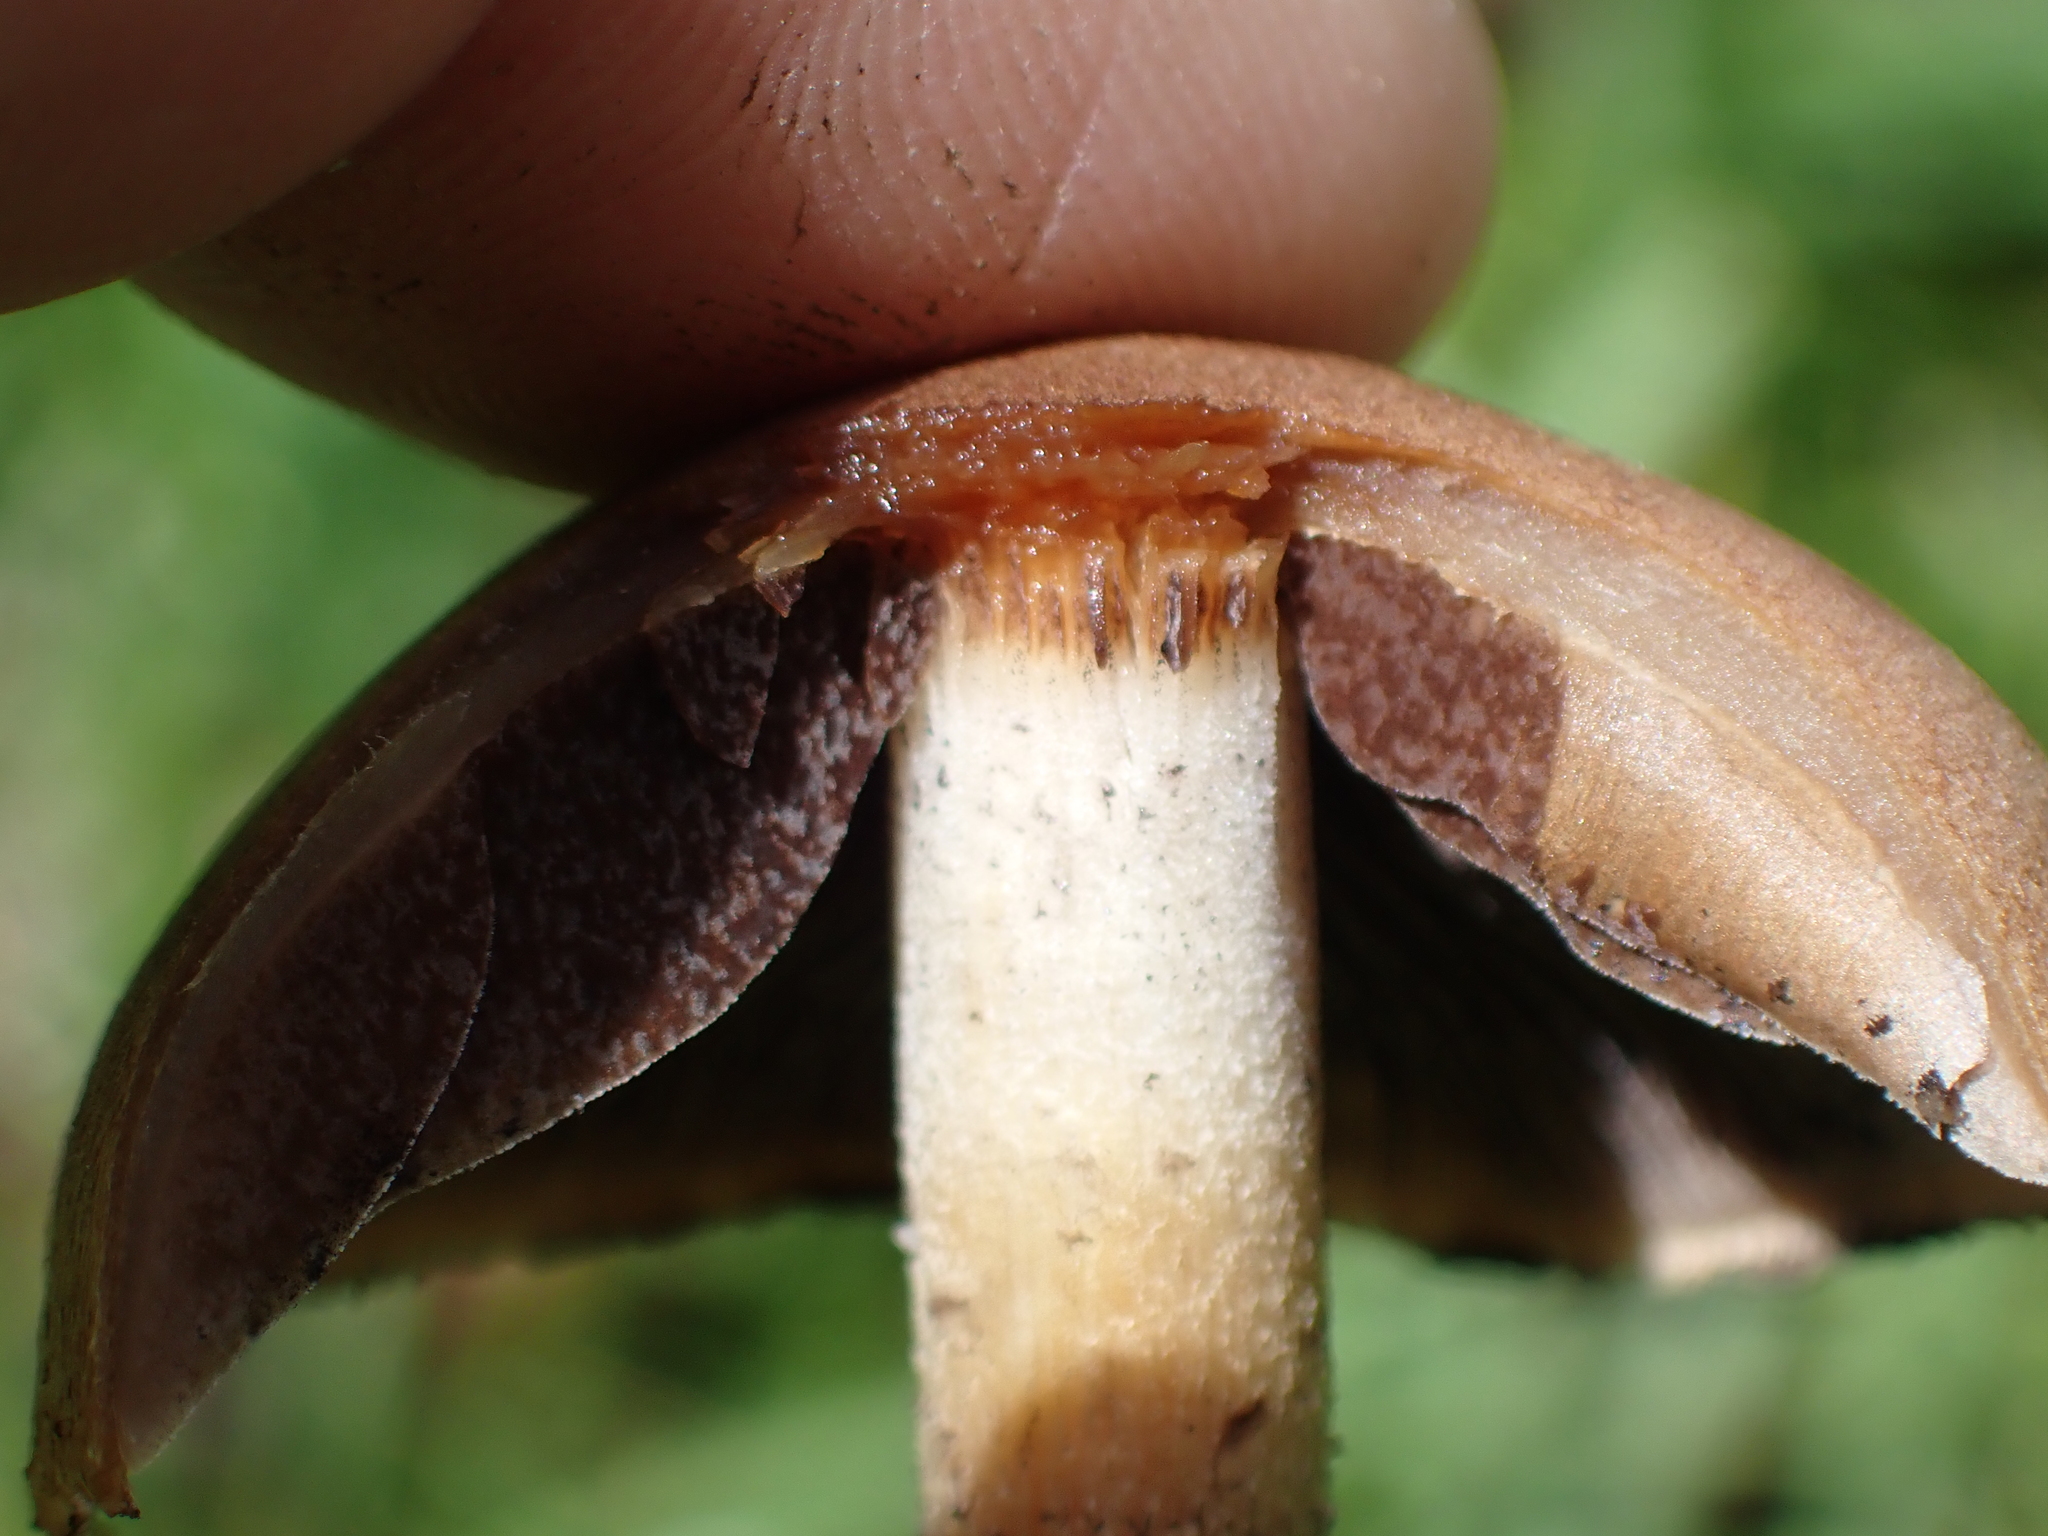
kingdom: Fungi
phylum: Basidiomycota
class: Agaricomycetes
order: Agaricales
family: Psathyrellaceae
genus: Lacrymaria
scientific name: Lacrymaria lacrymabunda
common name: Weeping widow
